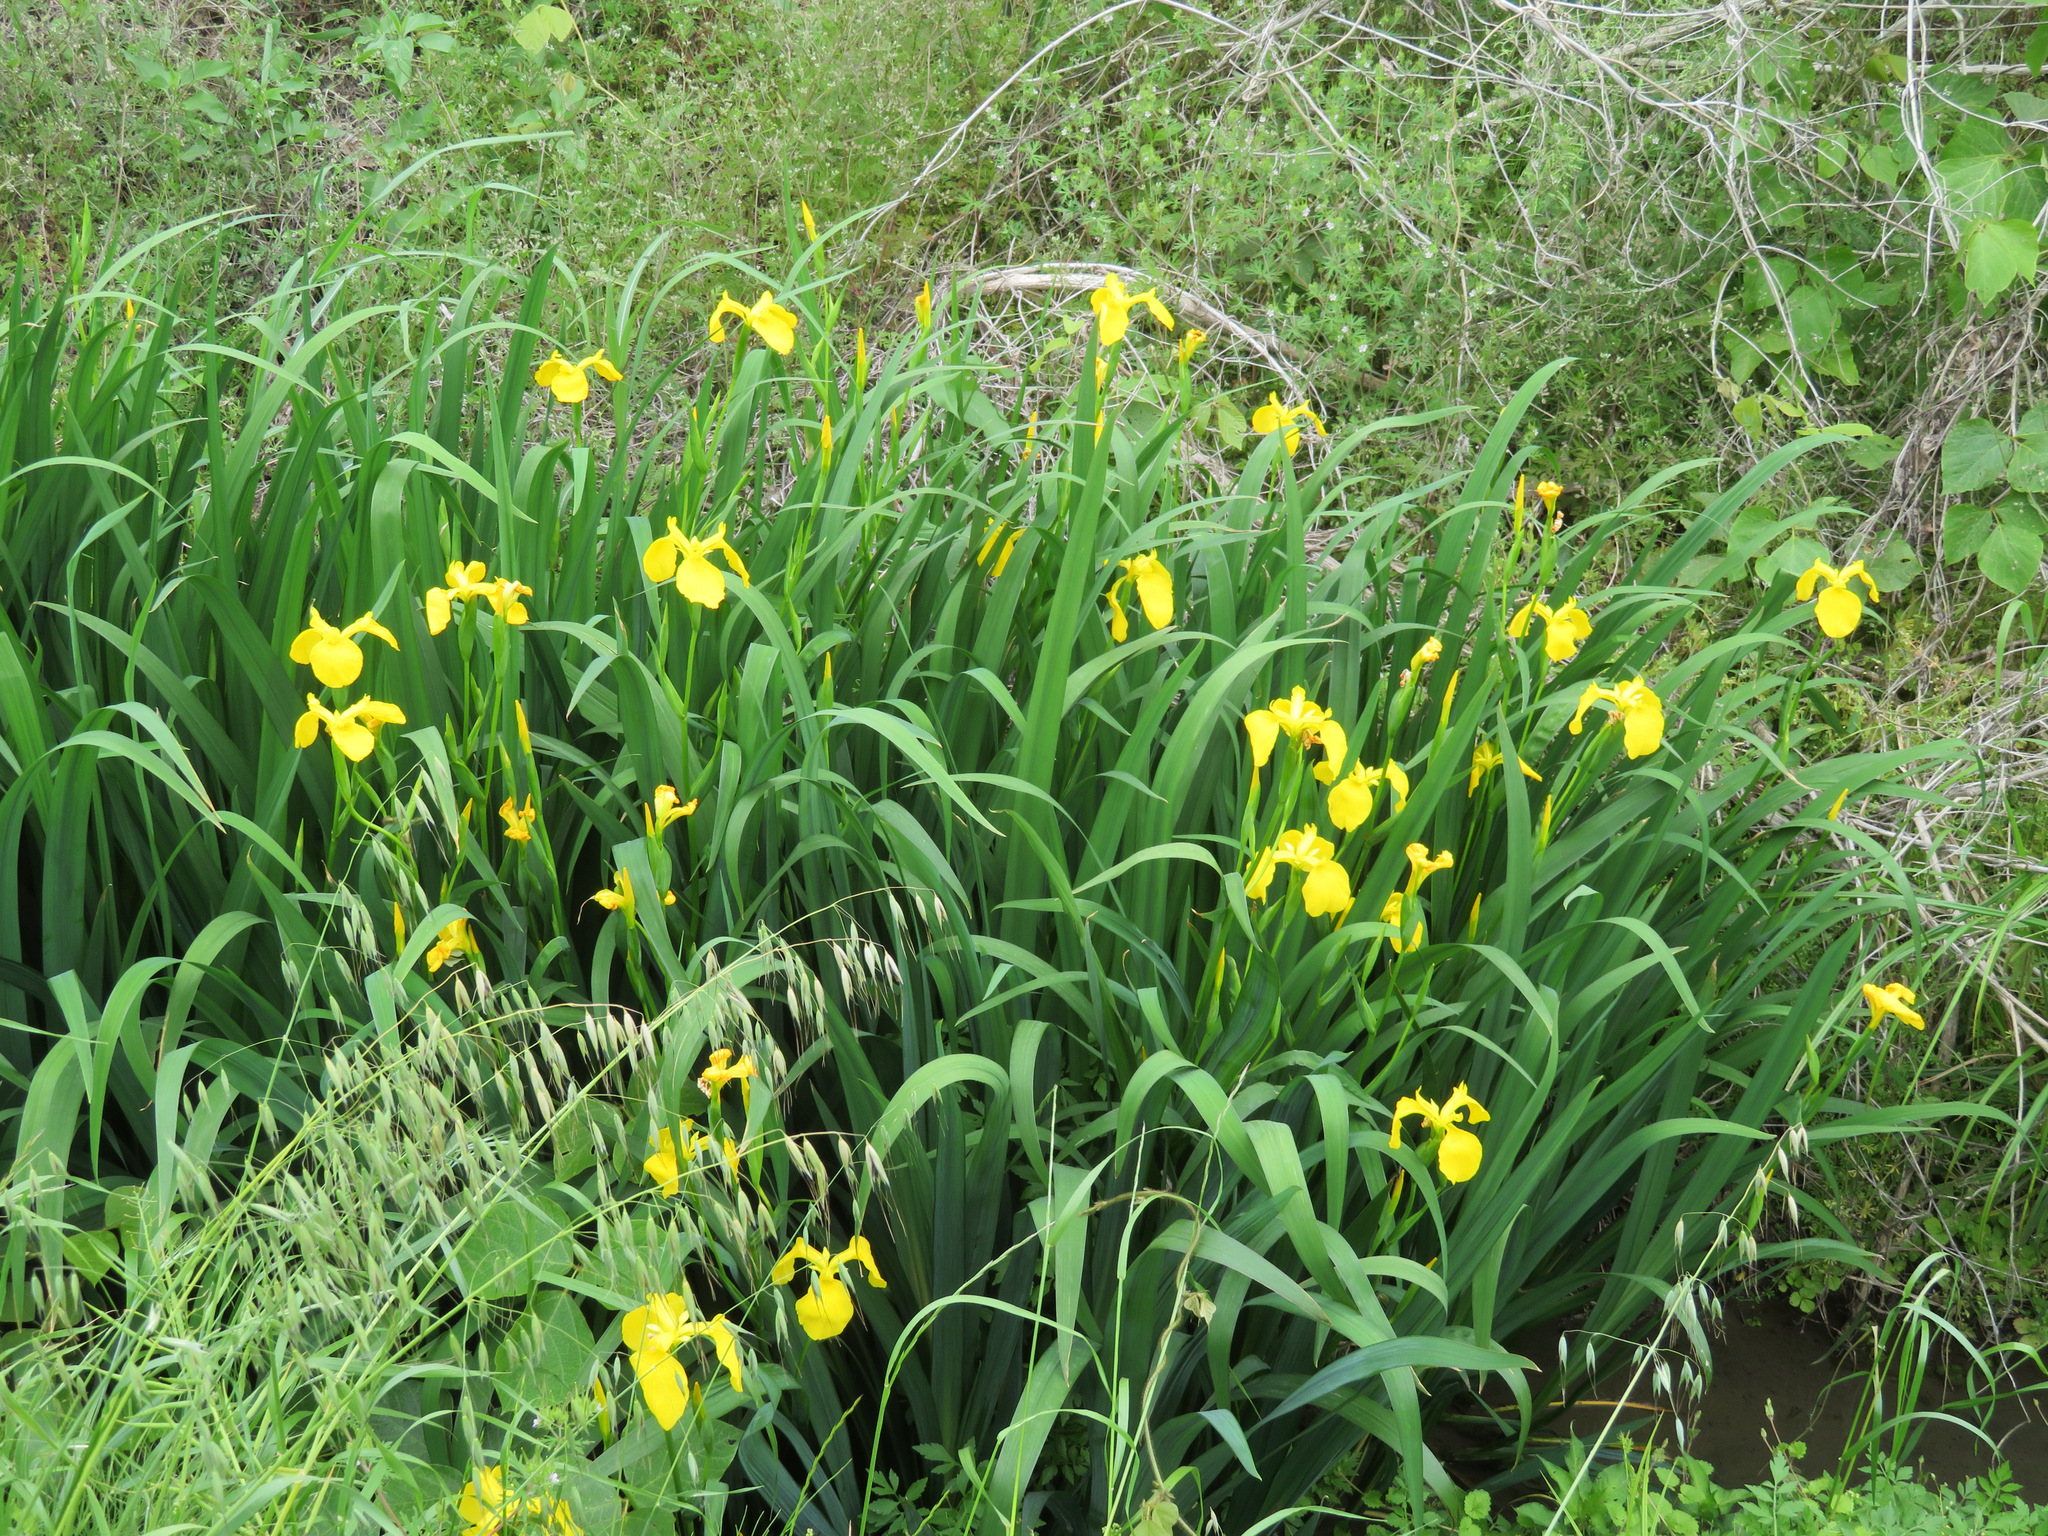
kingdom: Plantae
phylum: Tracheophyta
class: Liliopsida
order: Asparagales
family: Iridaceae
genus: Iris
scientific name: Iris pseudacorus
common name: Yellow flag
